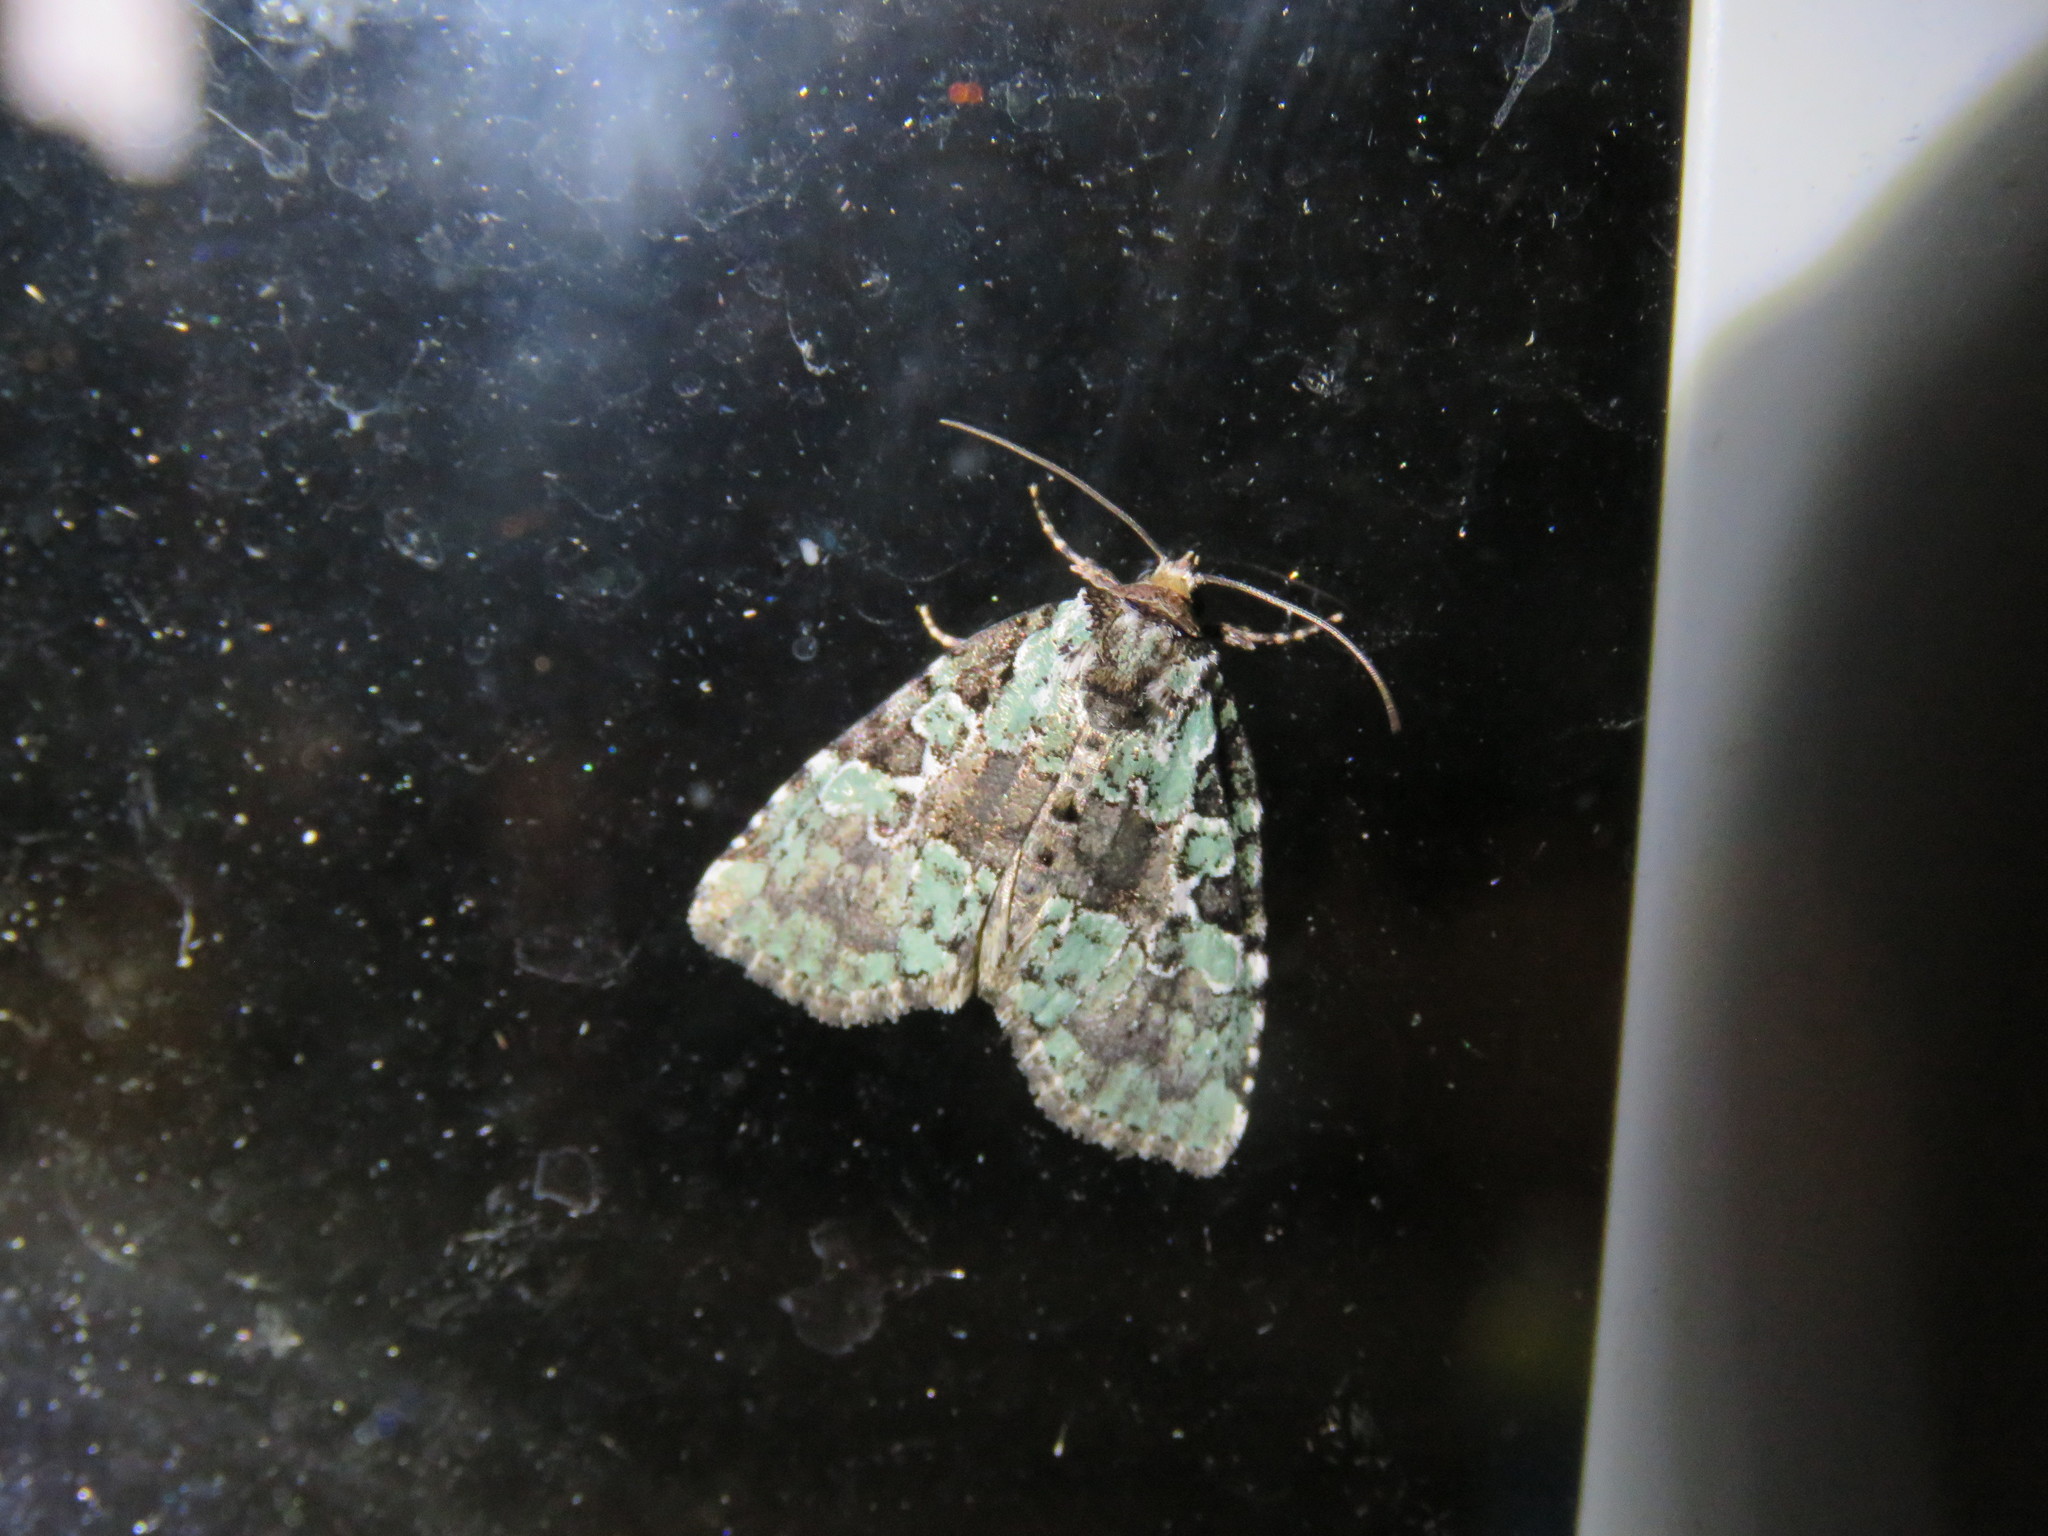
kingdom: Animalia
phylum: Arthropoda
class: Insecta
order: Lepidoptera
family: Noctuidae
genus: Leuconycta
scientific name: Leuconycta lepidula
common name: Marbled-green leuconycta moth
